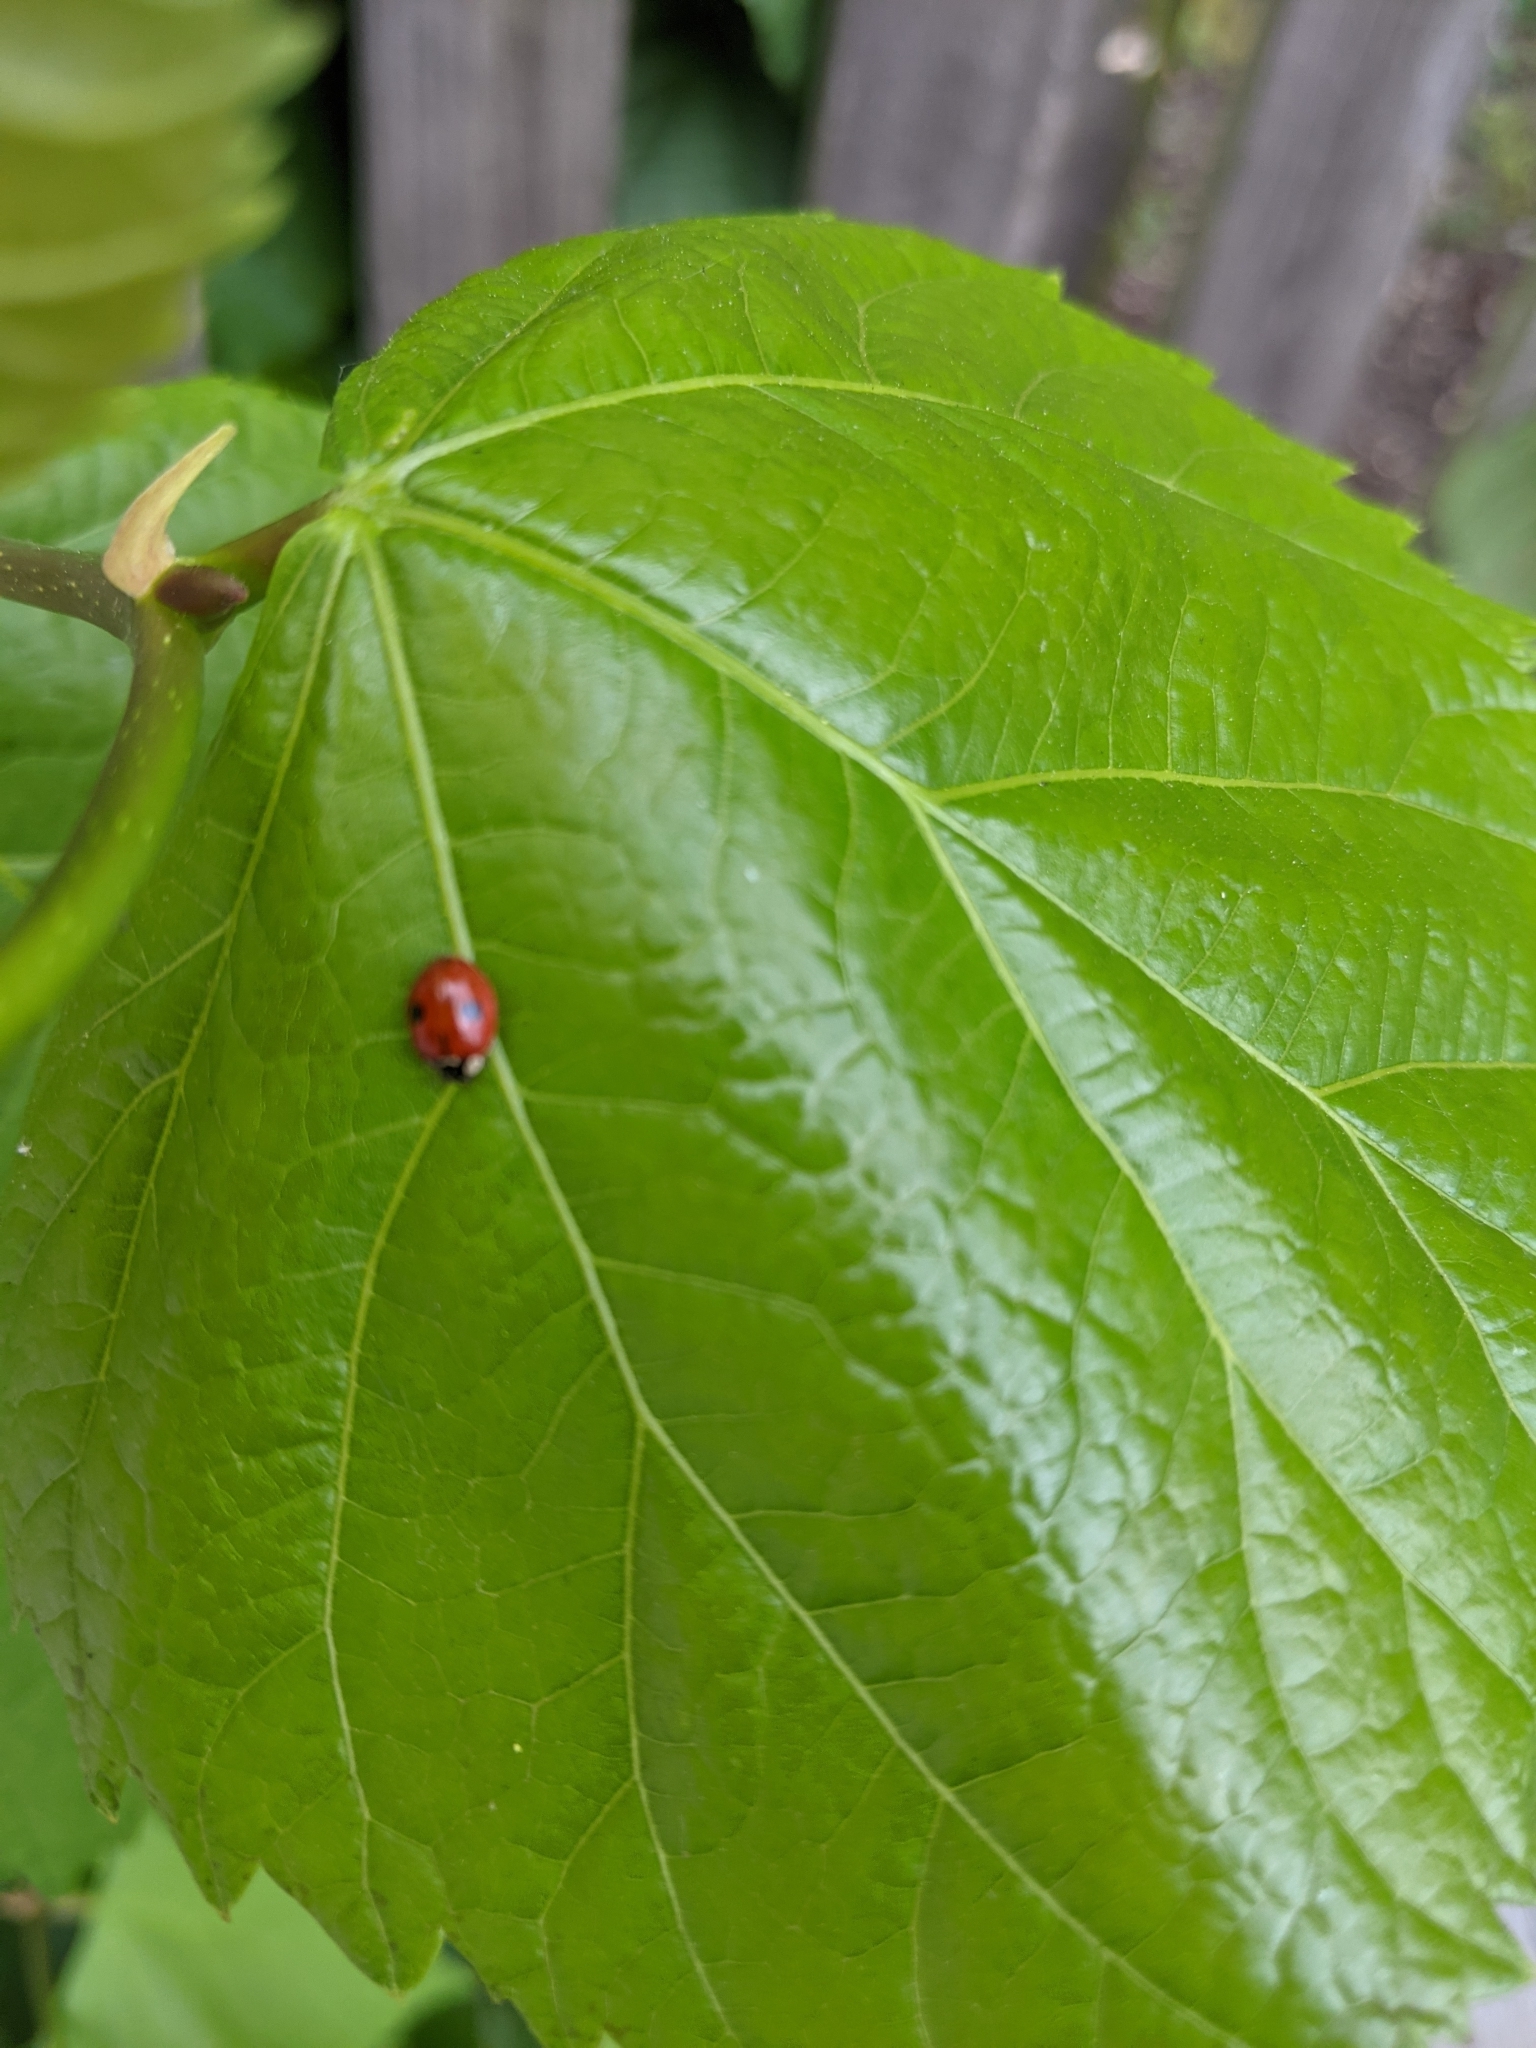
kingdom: Animalia
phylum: Arthropoda
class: Insecta
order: Coleoptera
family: Coccinellidae
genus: Adalia
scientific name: Adalia bipunctata
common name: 2-spot ladybird
